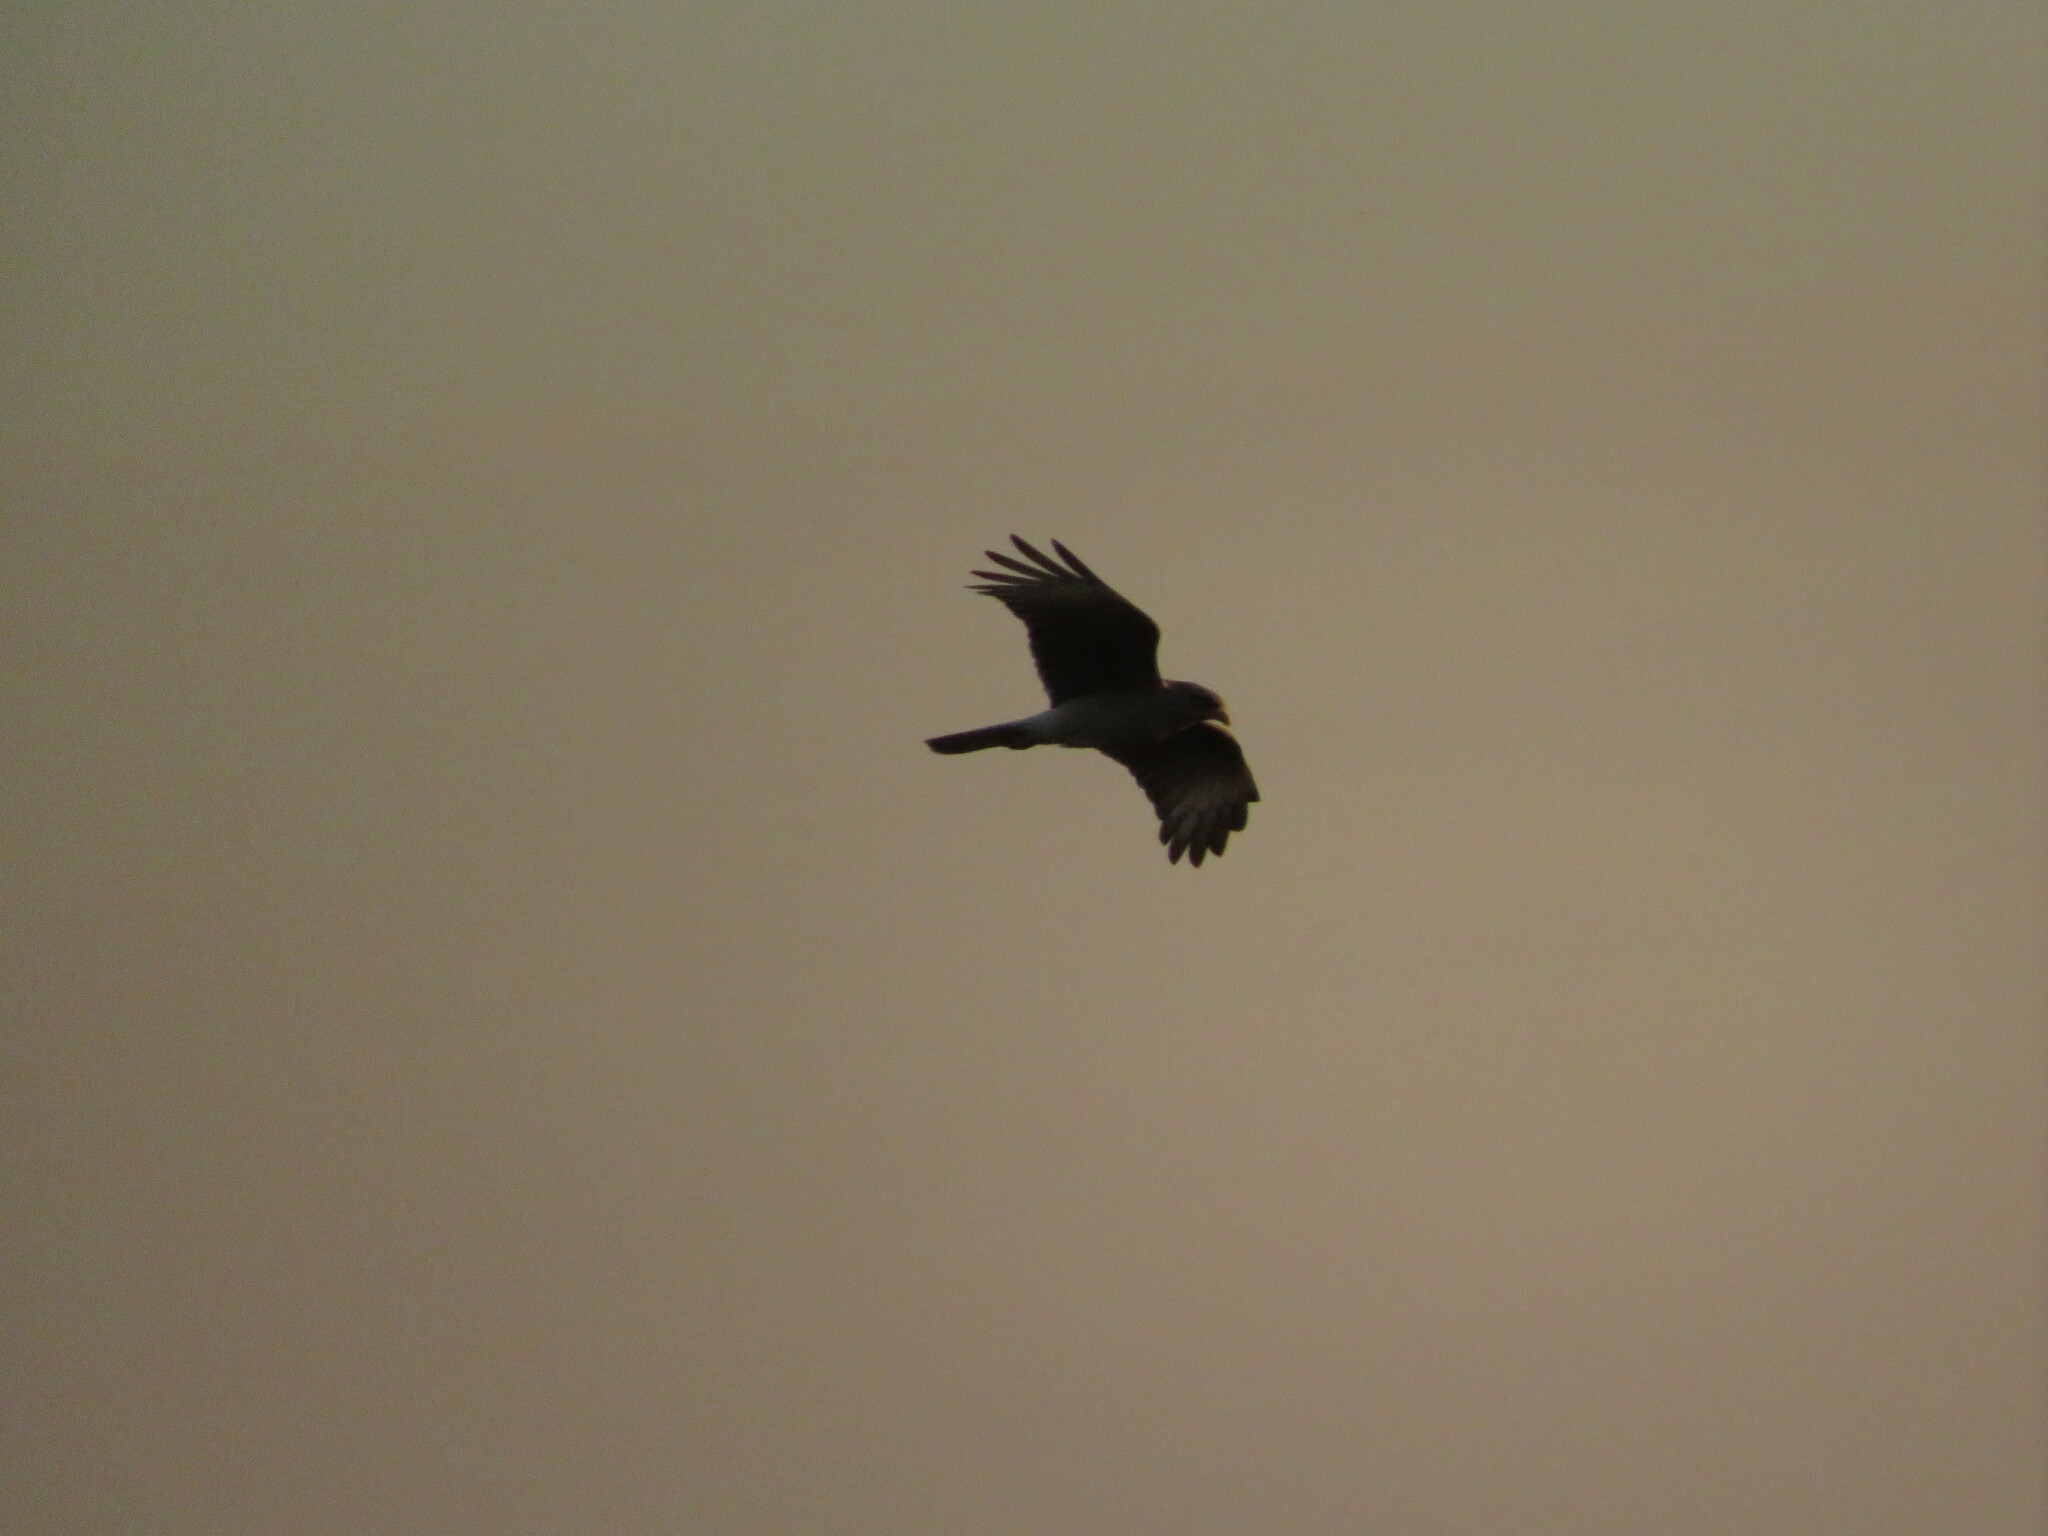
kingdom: Animalia
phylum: Chordata
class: Aves
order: Falconiformes
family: Falconidae
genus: Daptrius
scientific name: Daptrius
